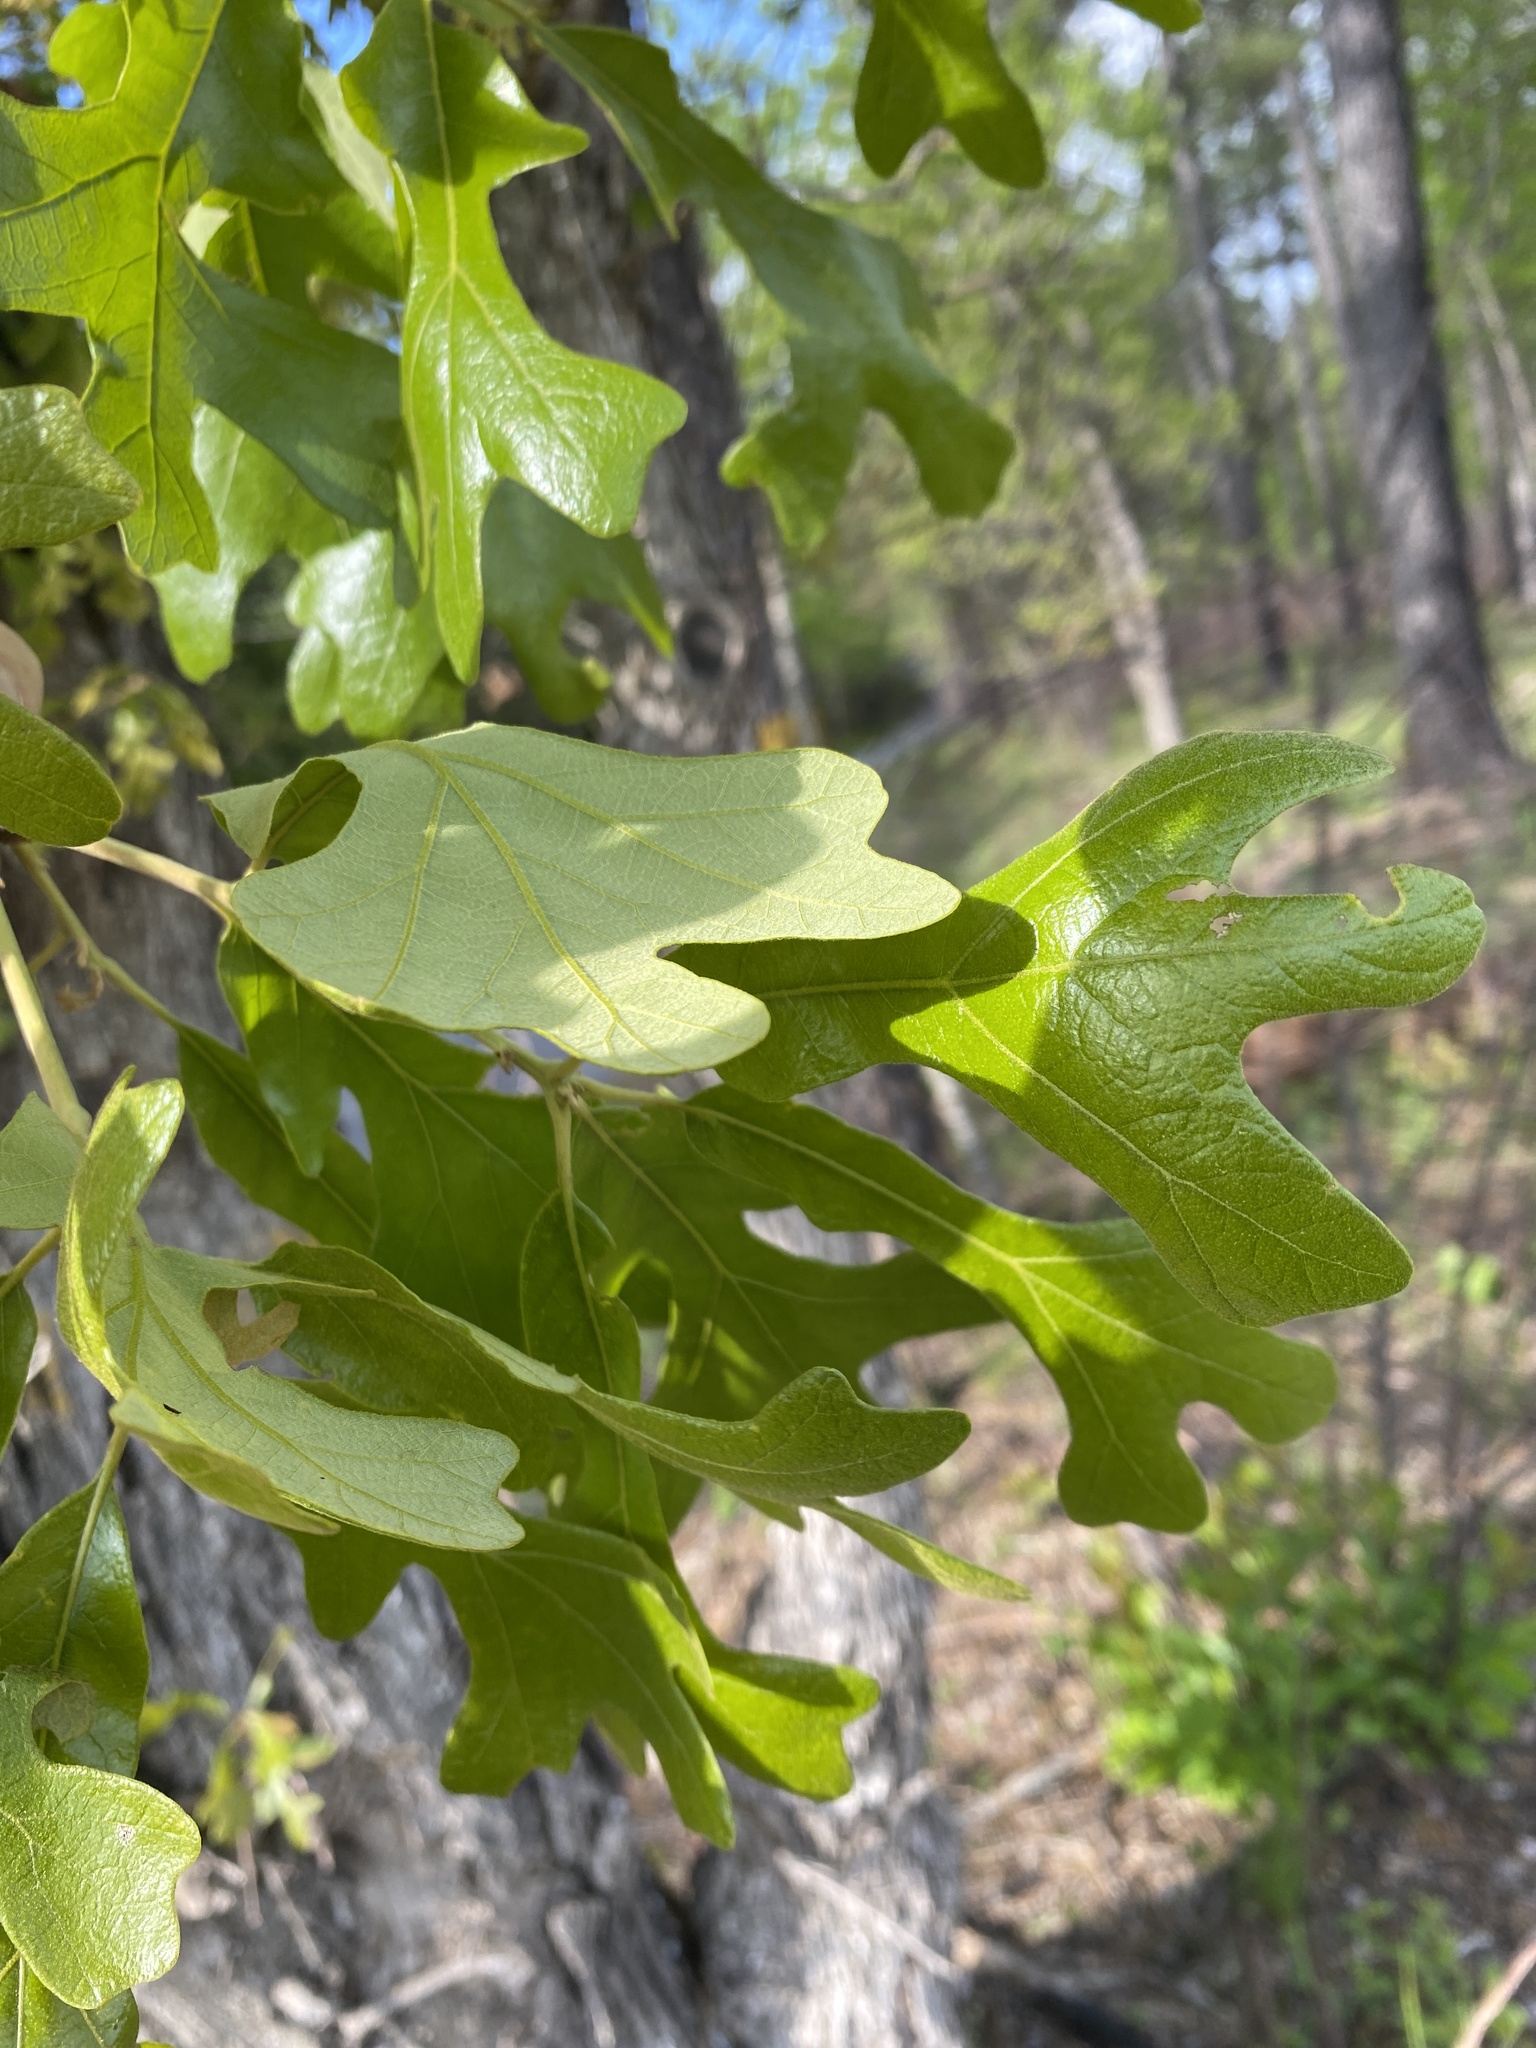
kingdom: Plantae
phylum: Tracheophyta
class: Magnoliopsida
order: Fagales
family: Fagaceae
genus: Quercus
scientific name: Quercus stellata
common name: Post oak
